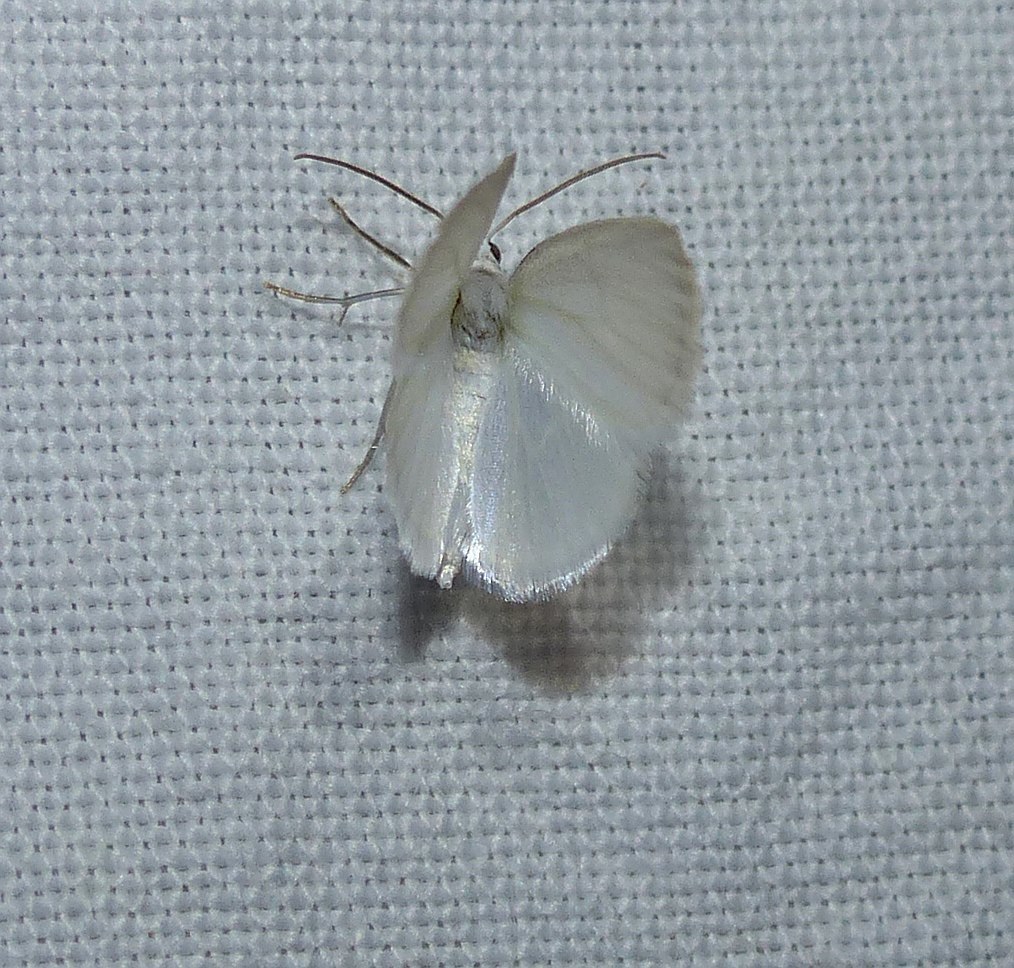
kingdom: Animalia
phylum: Arthropoda
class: Insecta
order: Lepidoptera
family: Geometridae
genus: Lomographa
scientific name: Lomographa vestaliata
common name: White spring moth
